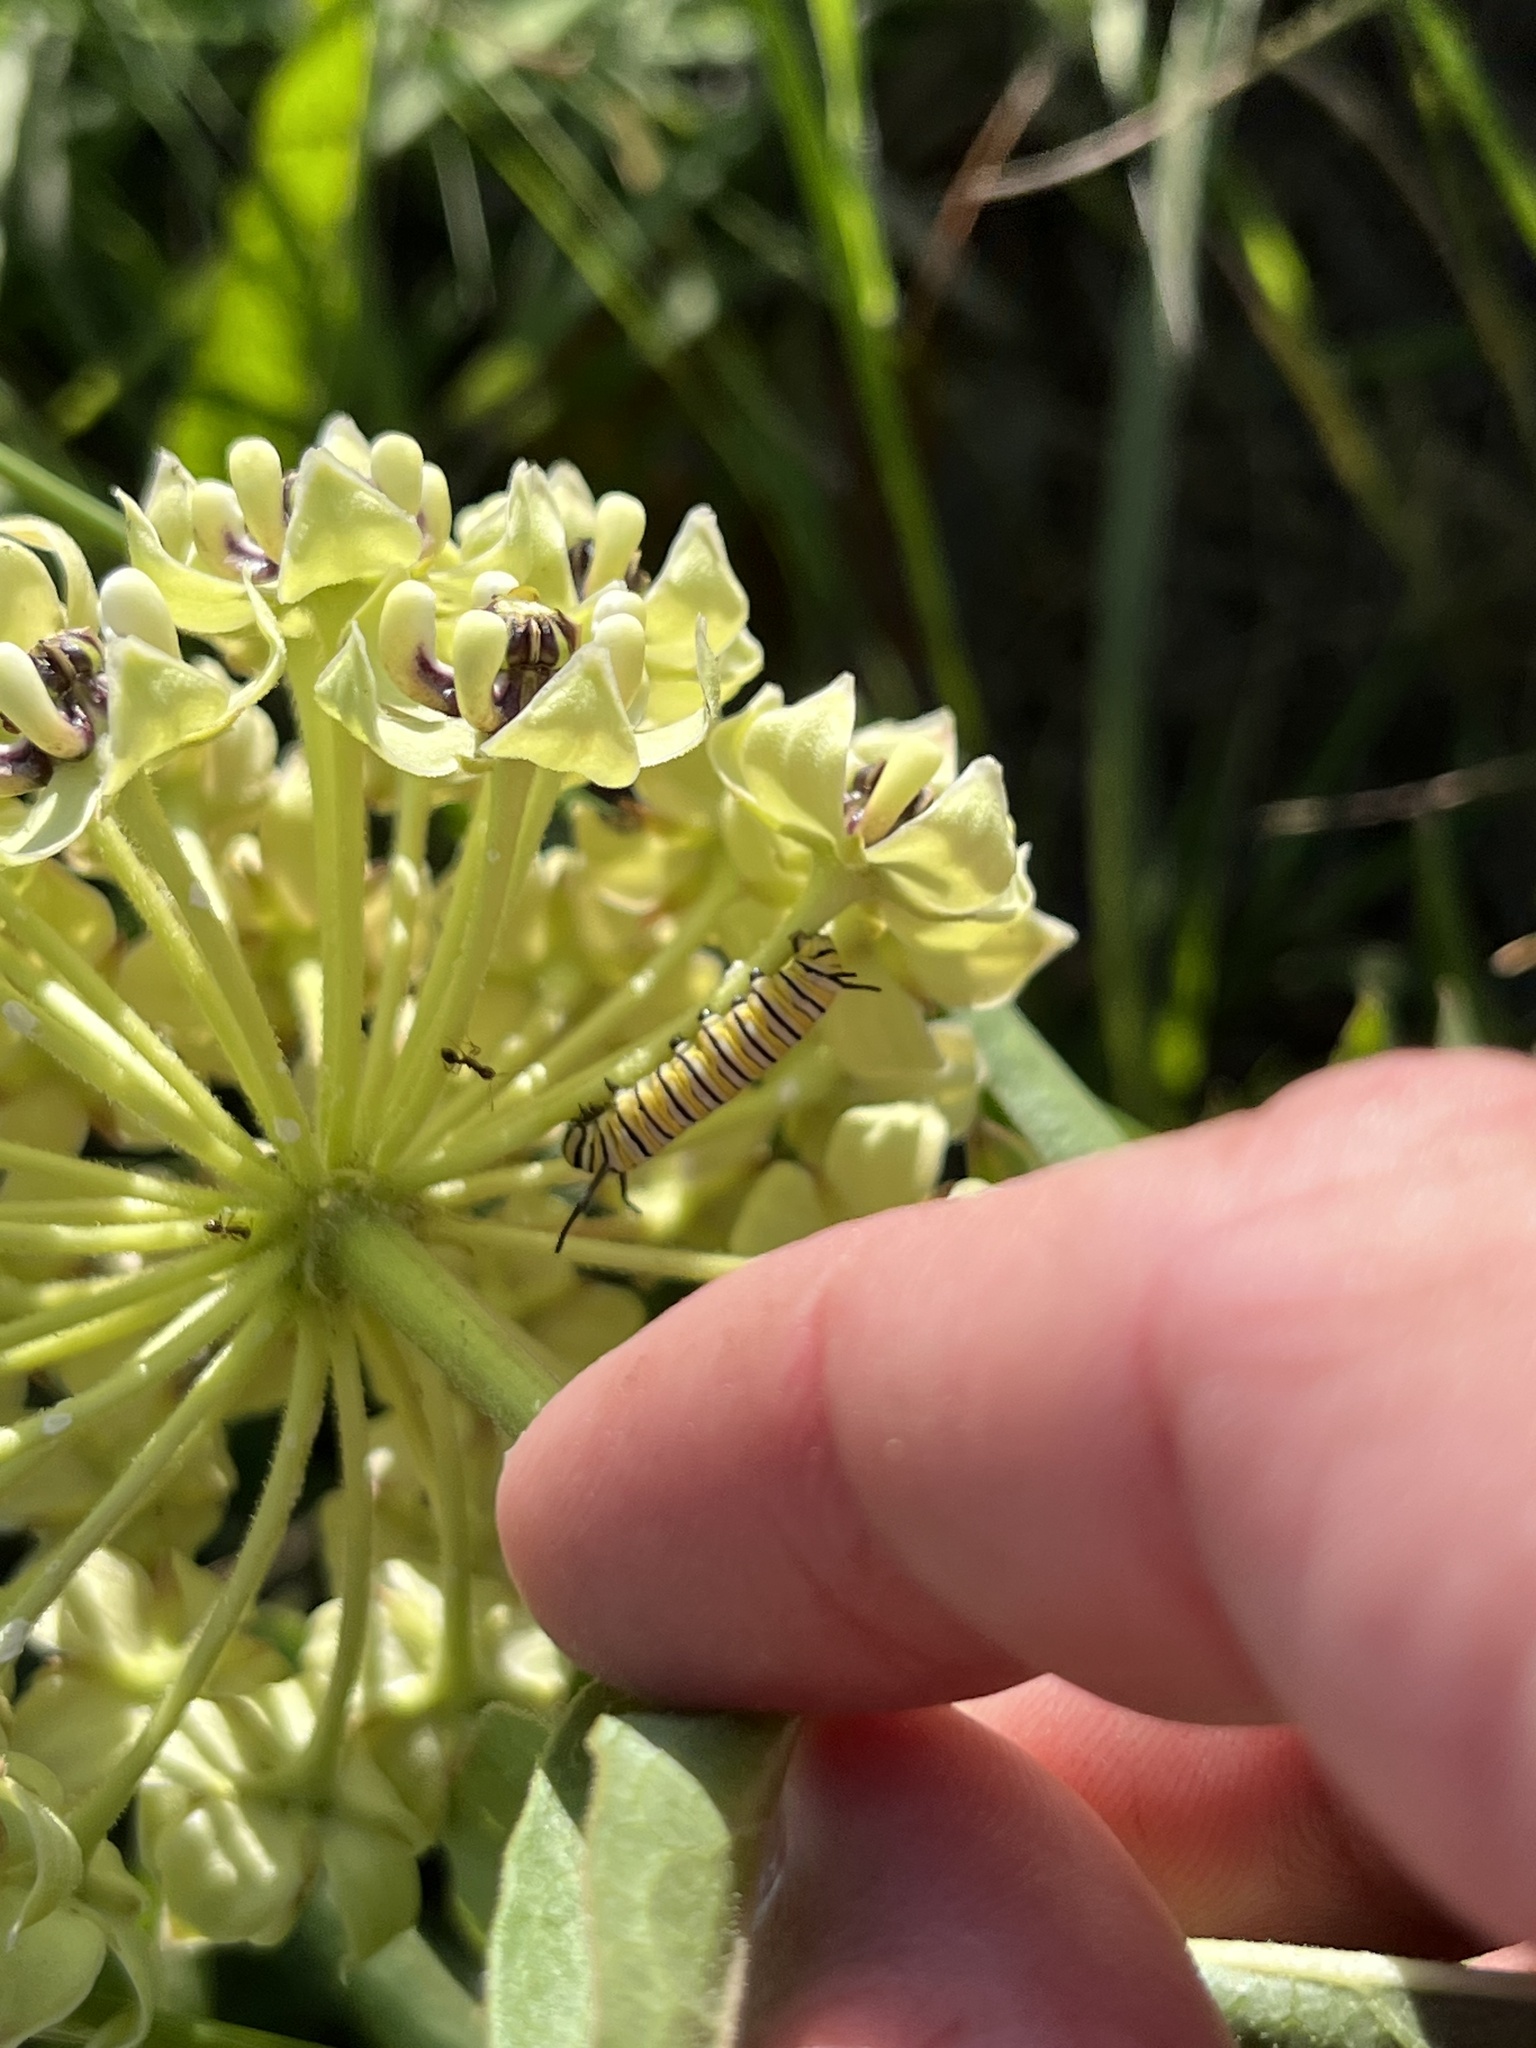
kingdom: Animalia
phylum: Arthropoda
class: Insecta
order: Lepidoptera
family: Nymphalidae
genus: Danaus
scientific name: Danaus plexippus
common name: Monarch
